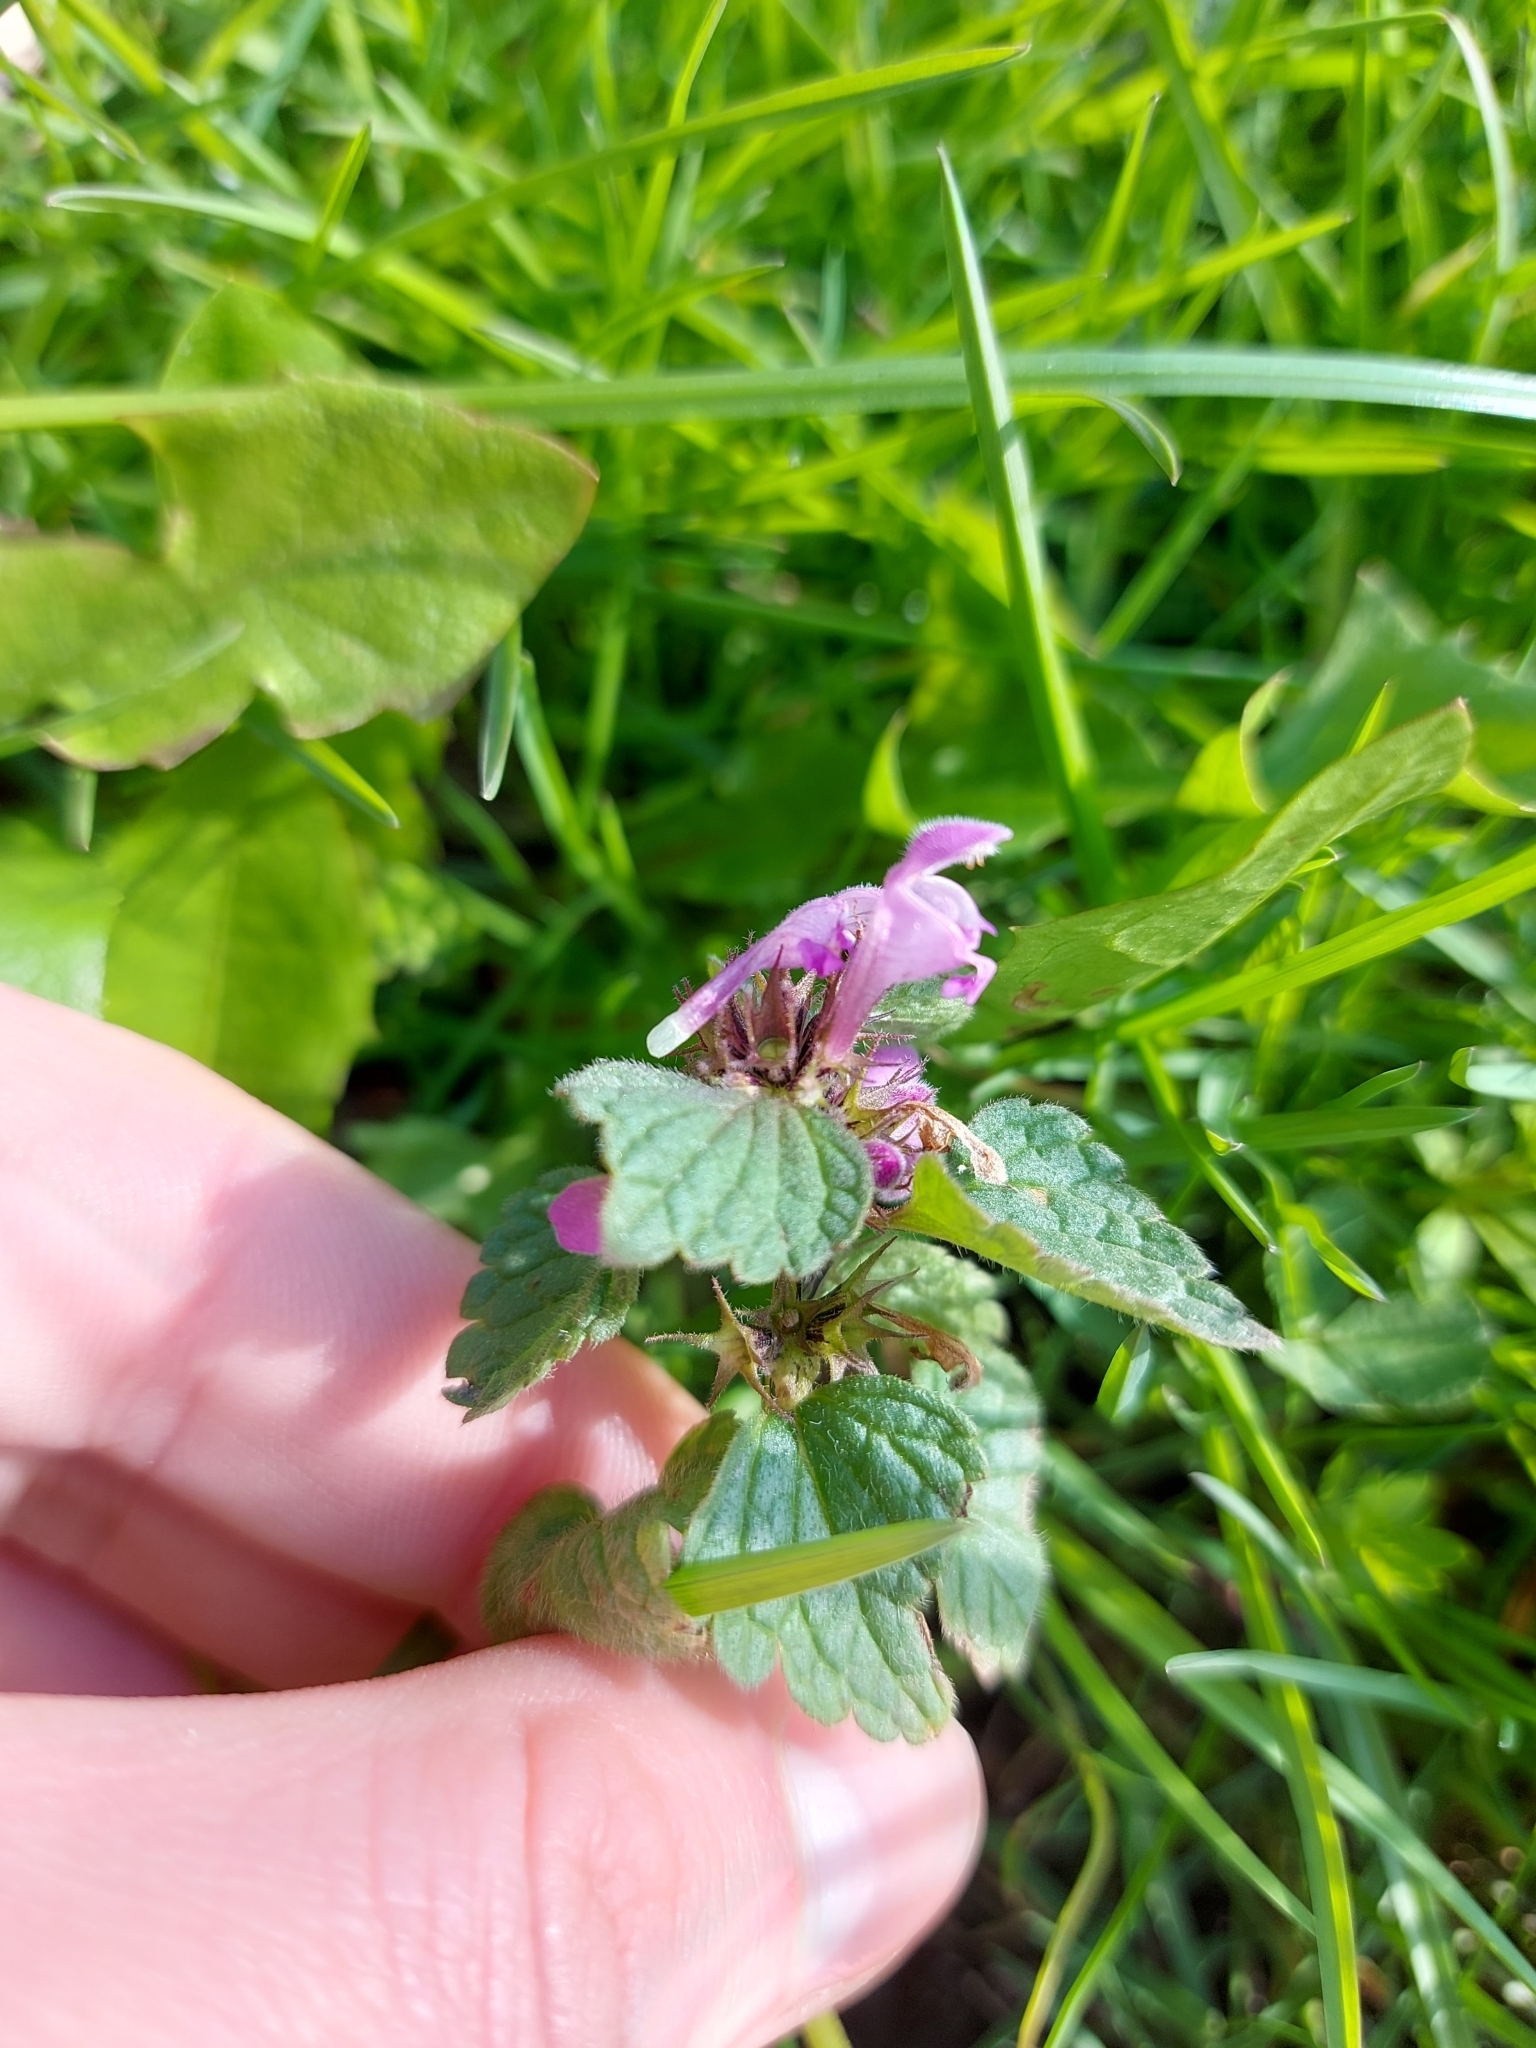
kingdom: Plantae
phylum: Tracheophyta
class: Magnoliopsida
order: Lamiales
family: Lamiaceae
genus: Lamium
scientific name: Lamium purpureum
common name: Red dead-nettle
